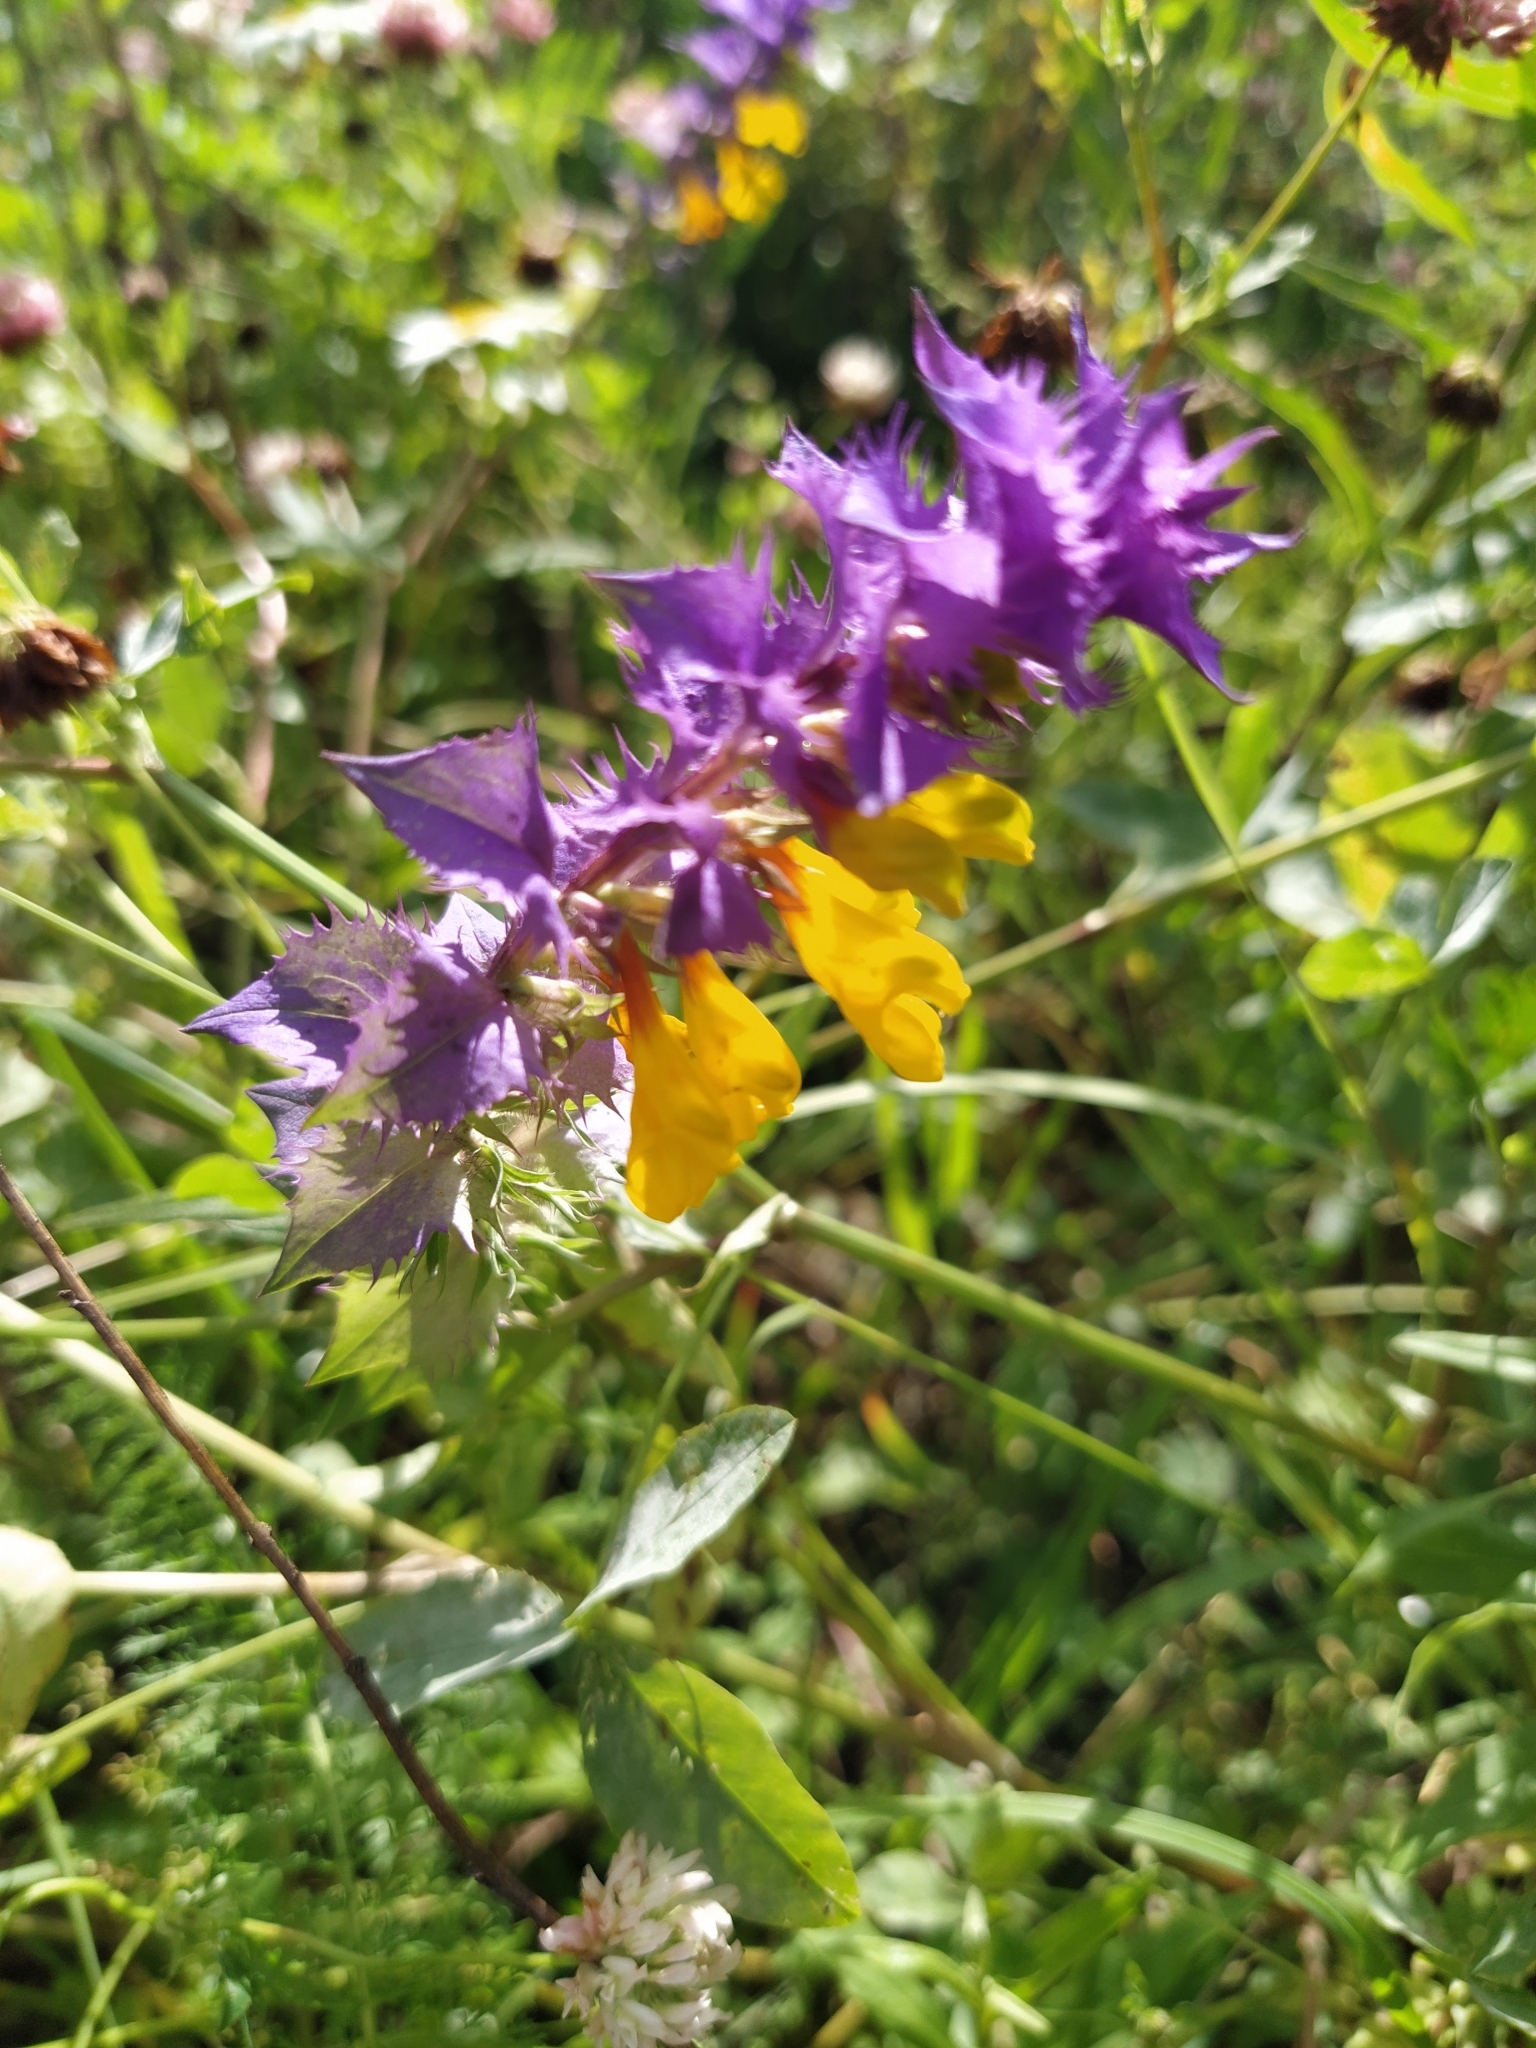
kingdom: Plantae
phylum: Tracheophyta
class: Magnoliopsida
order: Lamiales
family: Orobanchaceae
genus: Melampyrum
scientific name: Melampyrum nemorosum
